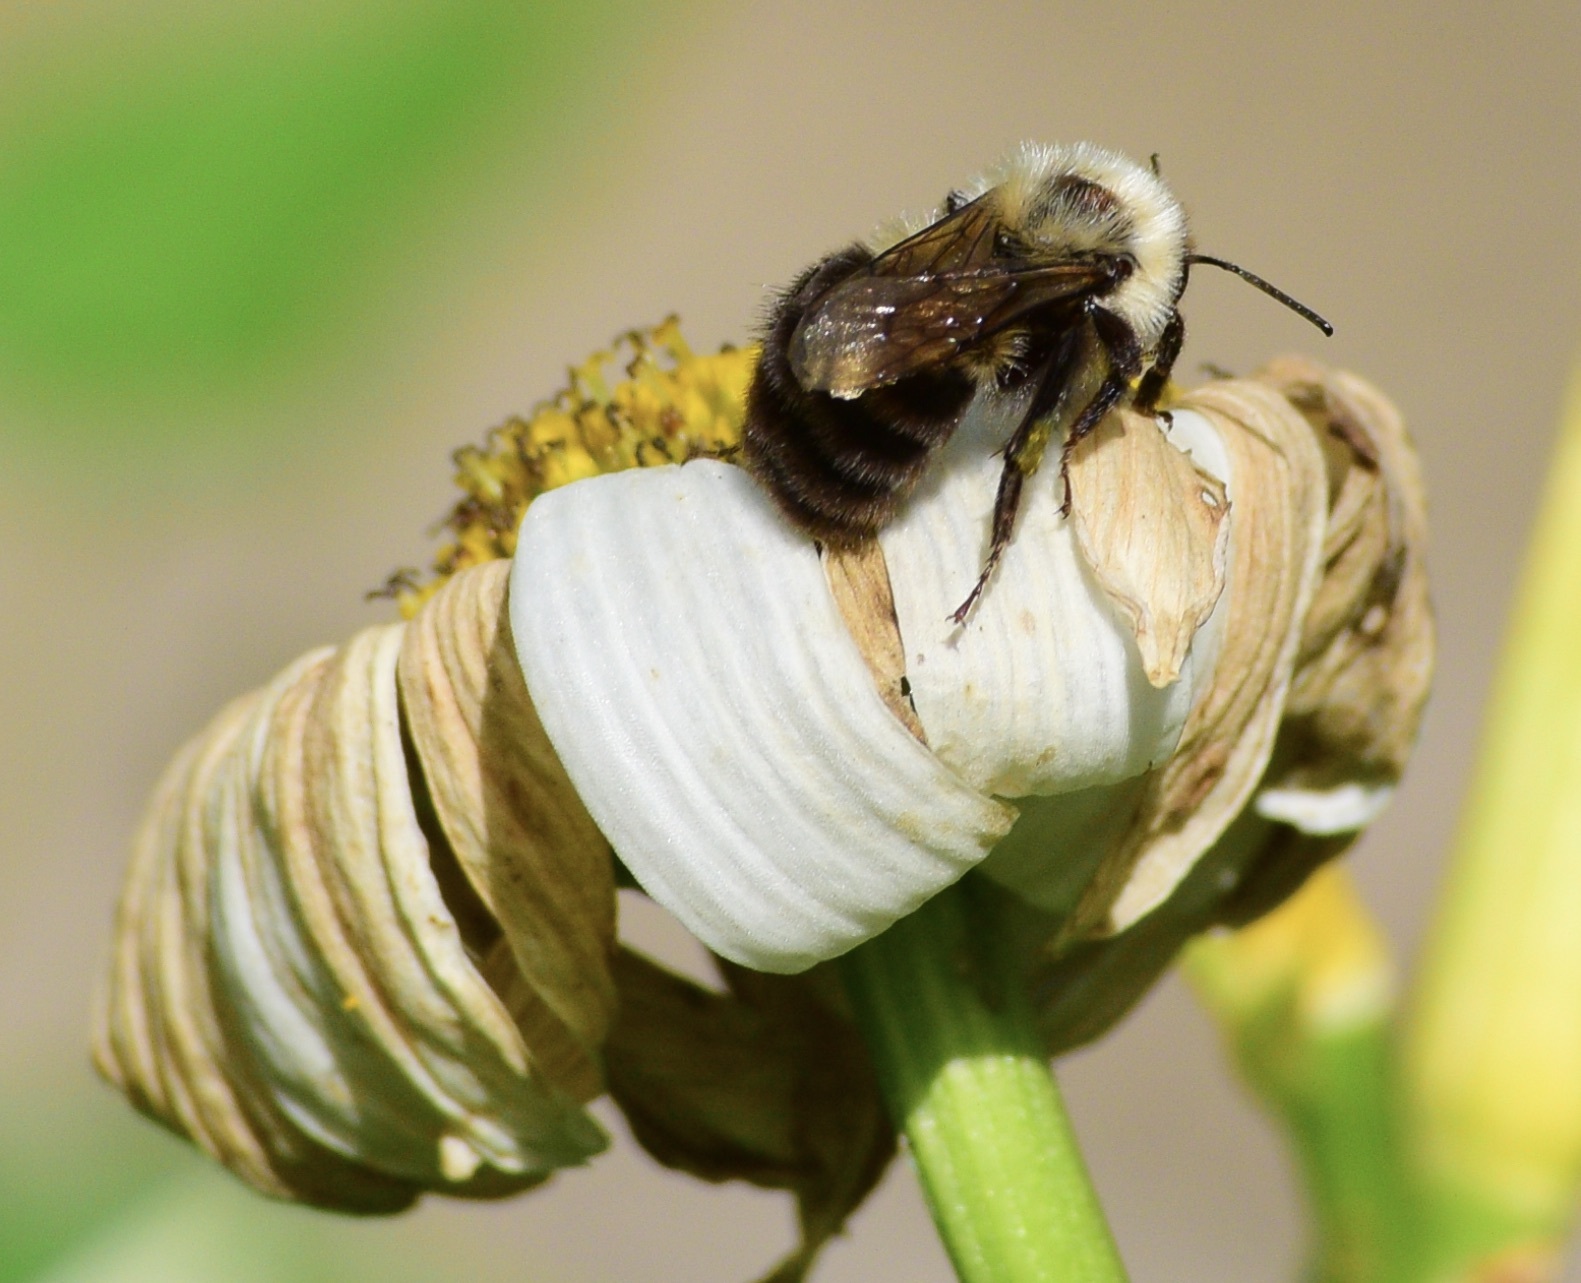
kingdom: Animalia
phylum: Arthropoda
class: Insecta
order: Hymenoptera
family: Apidae
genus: Bombus
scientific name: Bombus bimaculatus
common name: Two-spotted bumble bee
